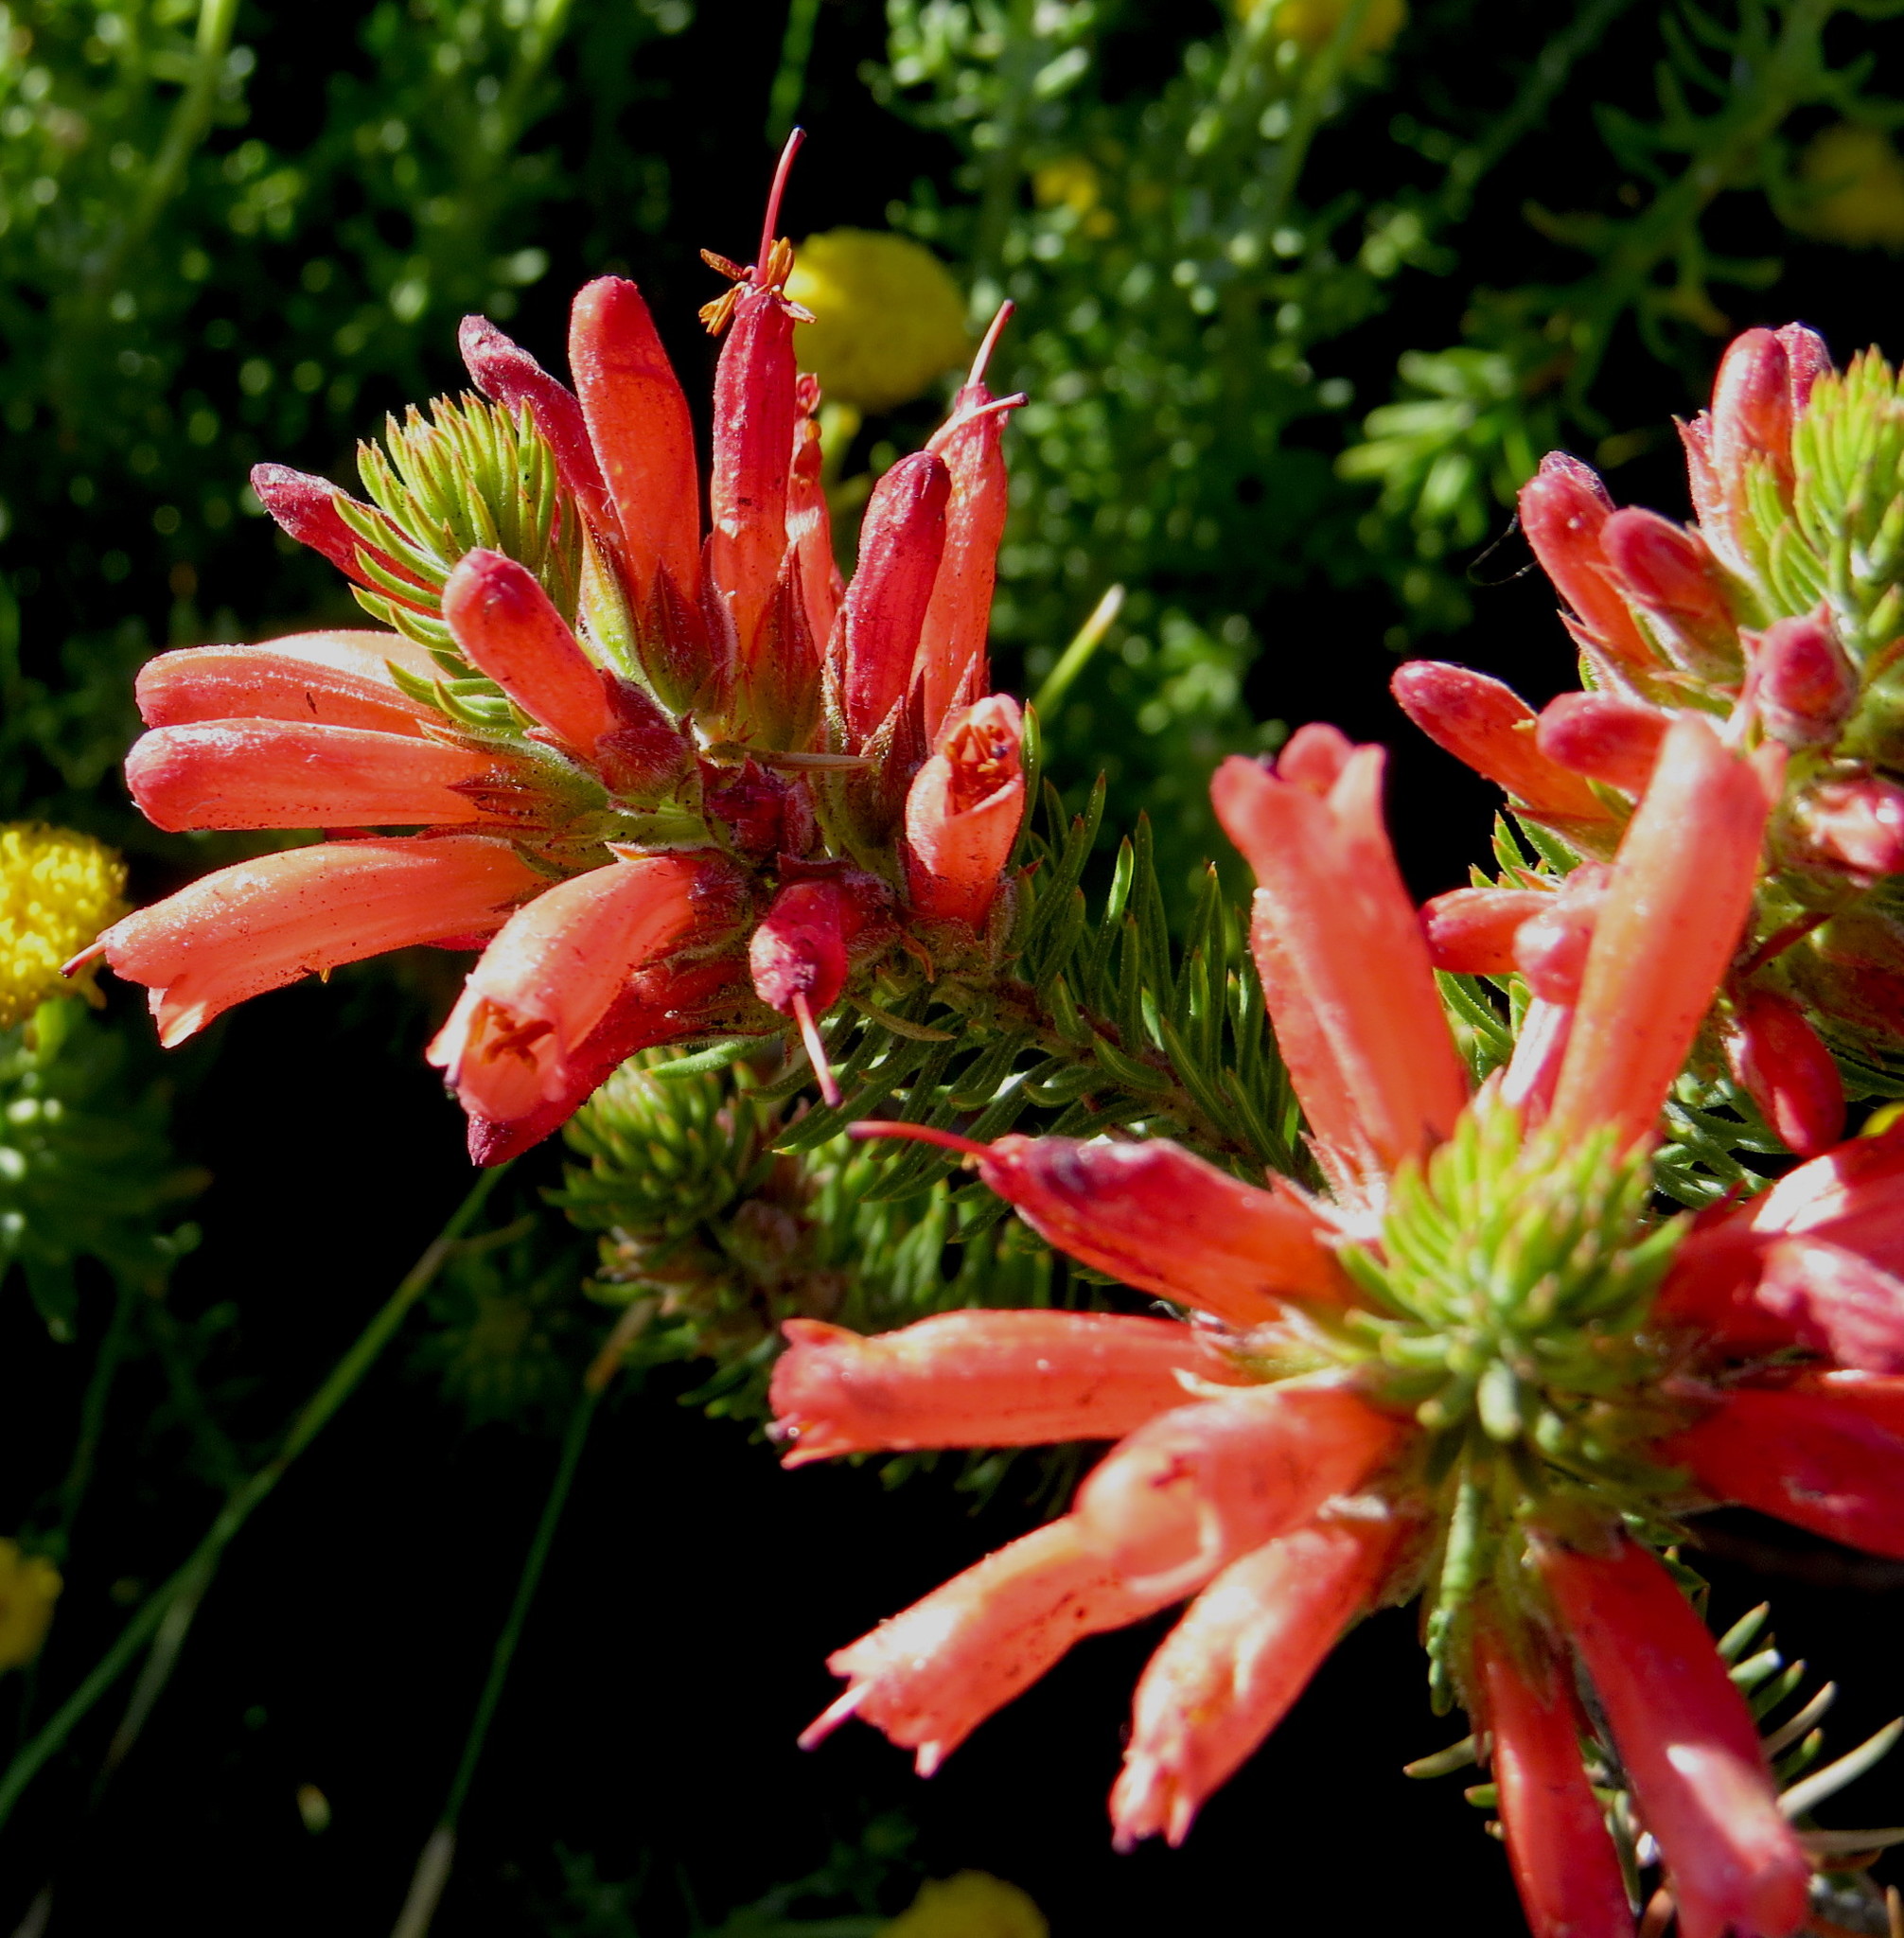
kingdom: Plantae
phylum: Tracheophyta
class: Magnoliopsida
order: Ericales
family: Ericaceae
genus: Erica
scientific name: Erica abietina
